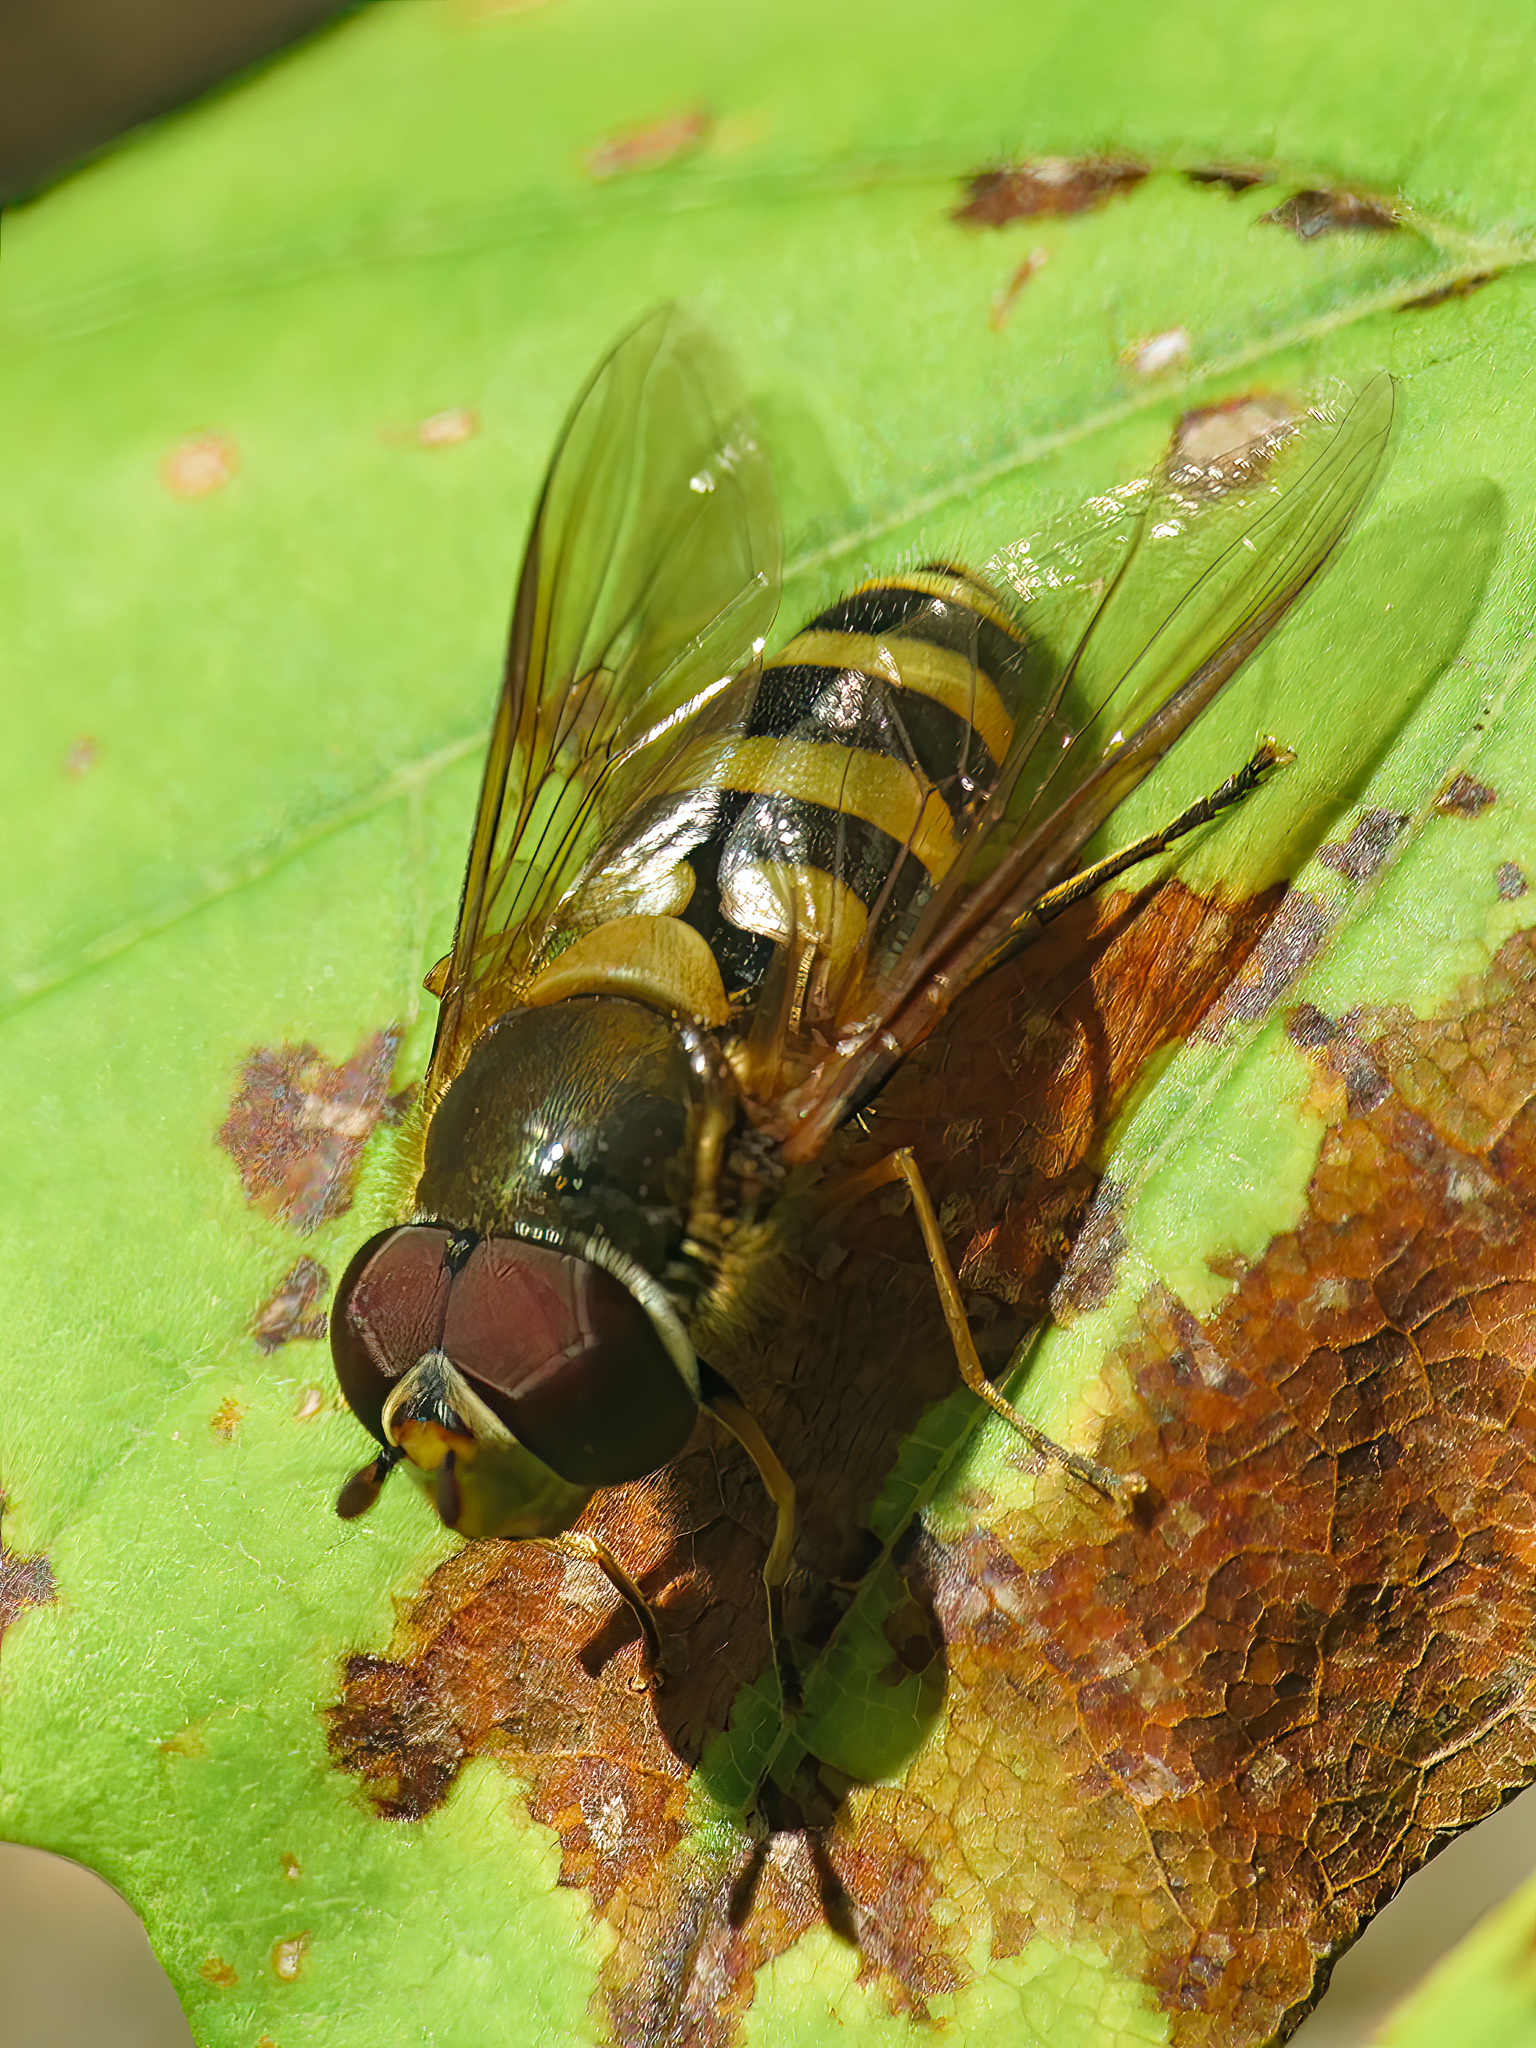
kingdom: Animalia
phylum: Arthropoda
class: Insecta
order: Diptera
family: Syrphidae
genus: Syrphus
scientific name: Syrphus
